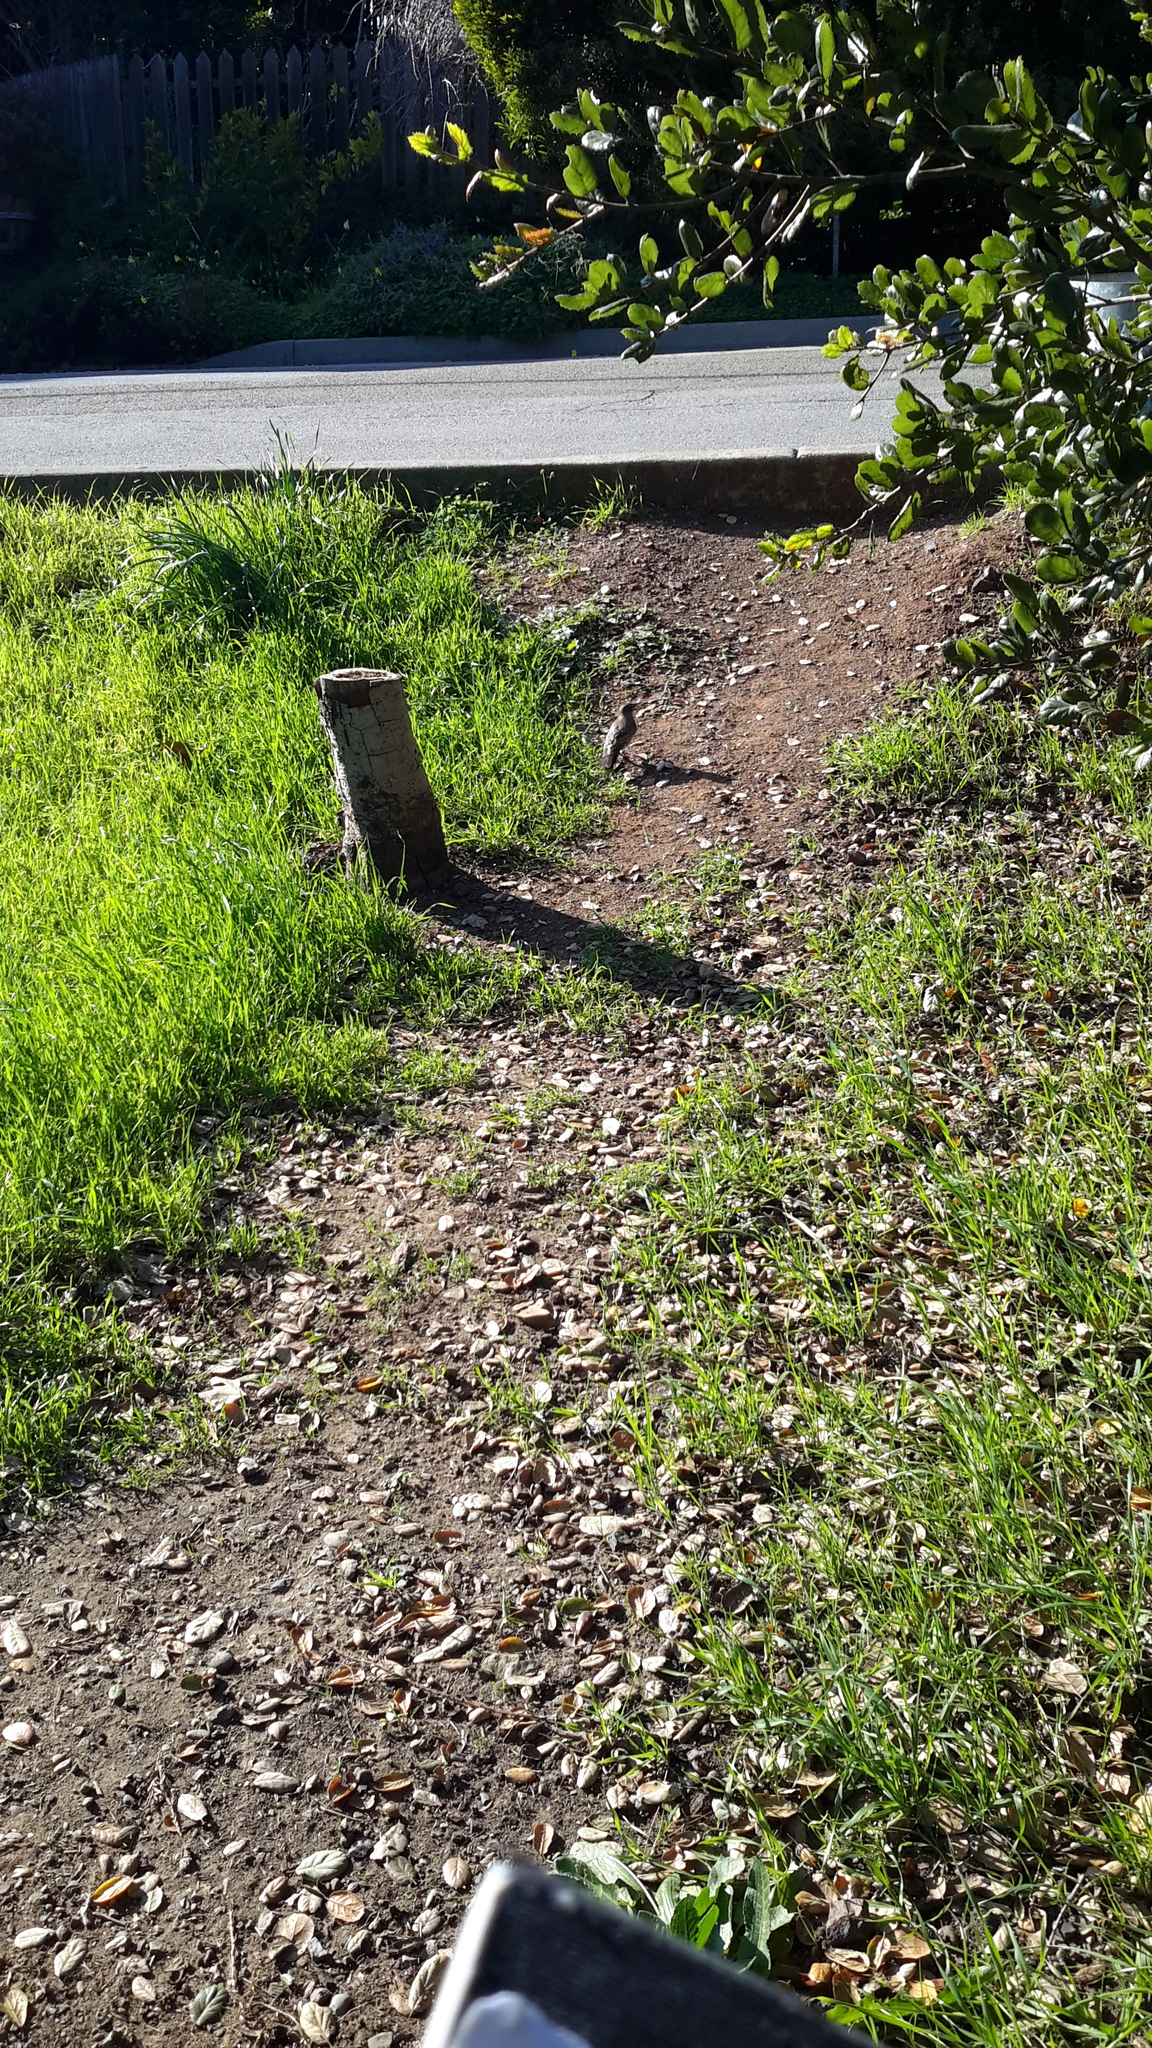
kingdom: Animalia
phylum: Chordata
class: Aves
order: Passeriformes
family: Turdidae
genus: Turdus
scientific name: Turdus migratorius
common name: American robin
